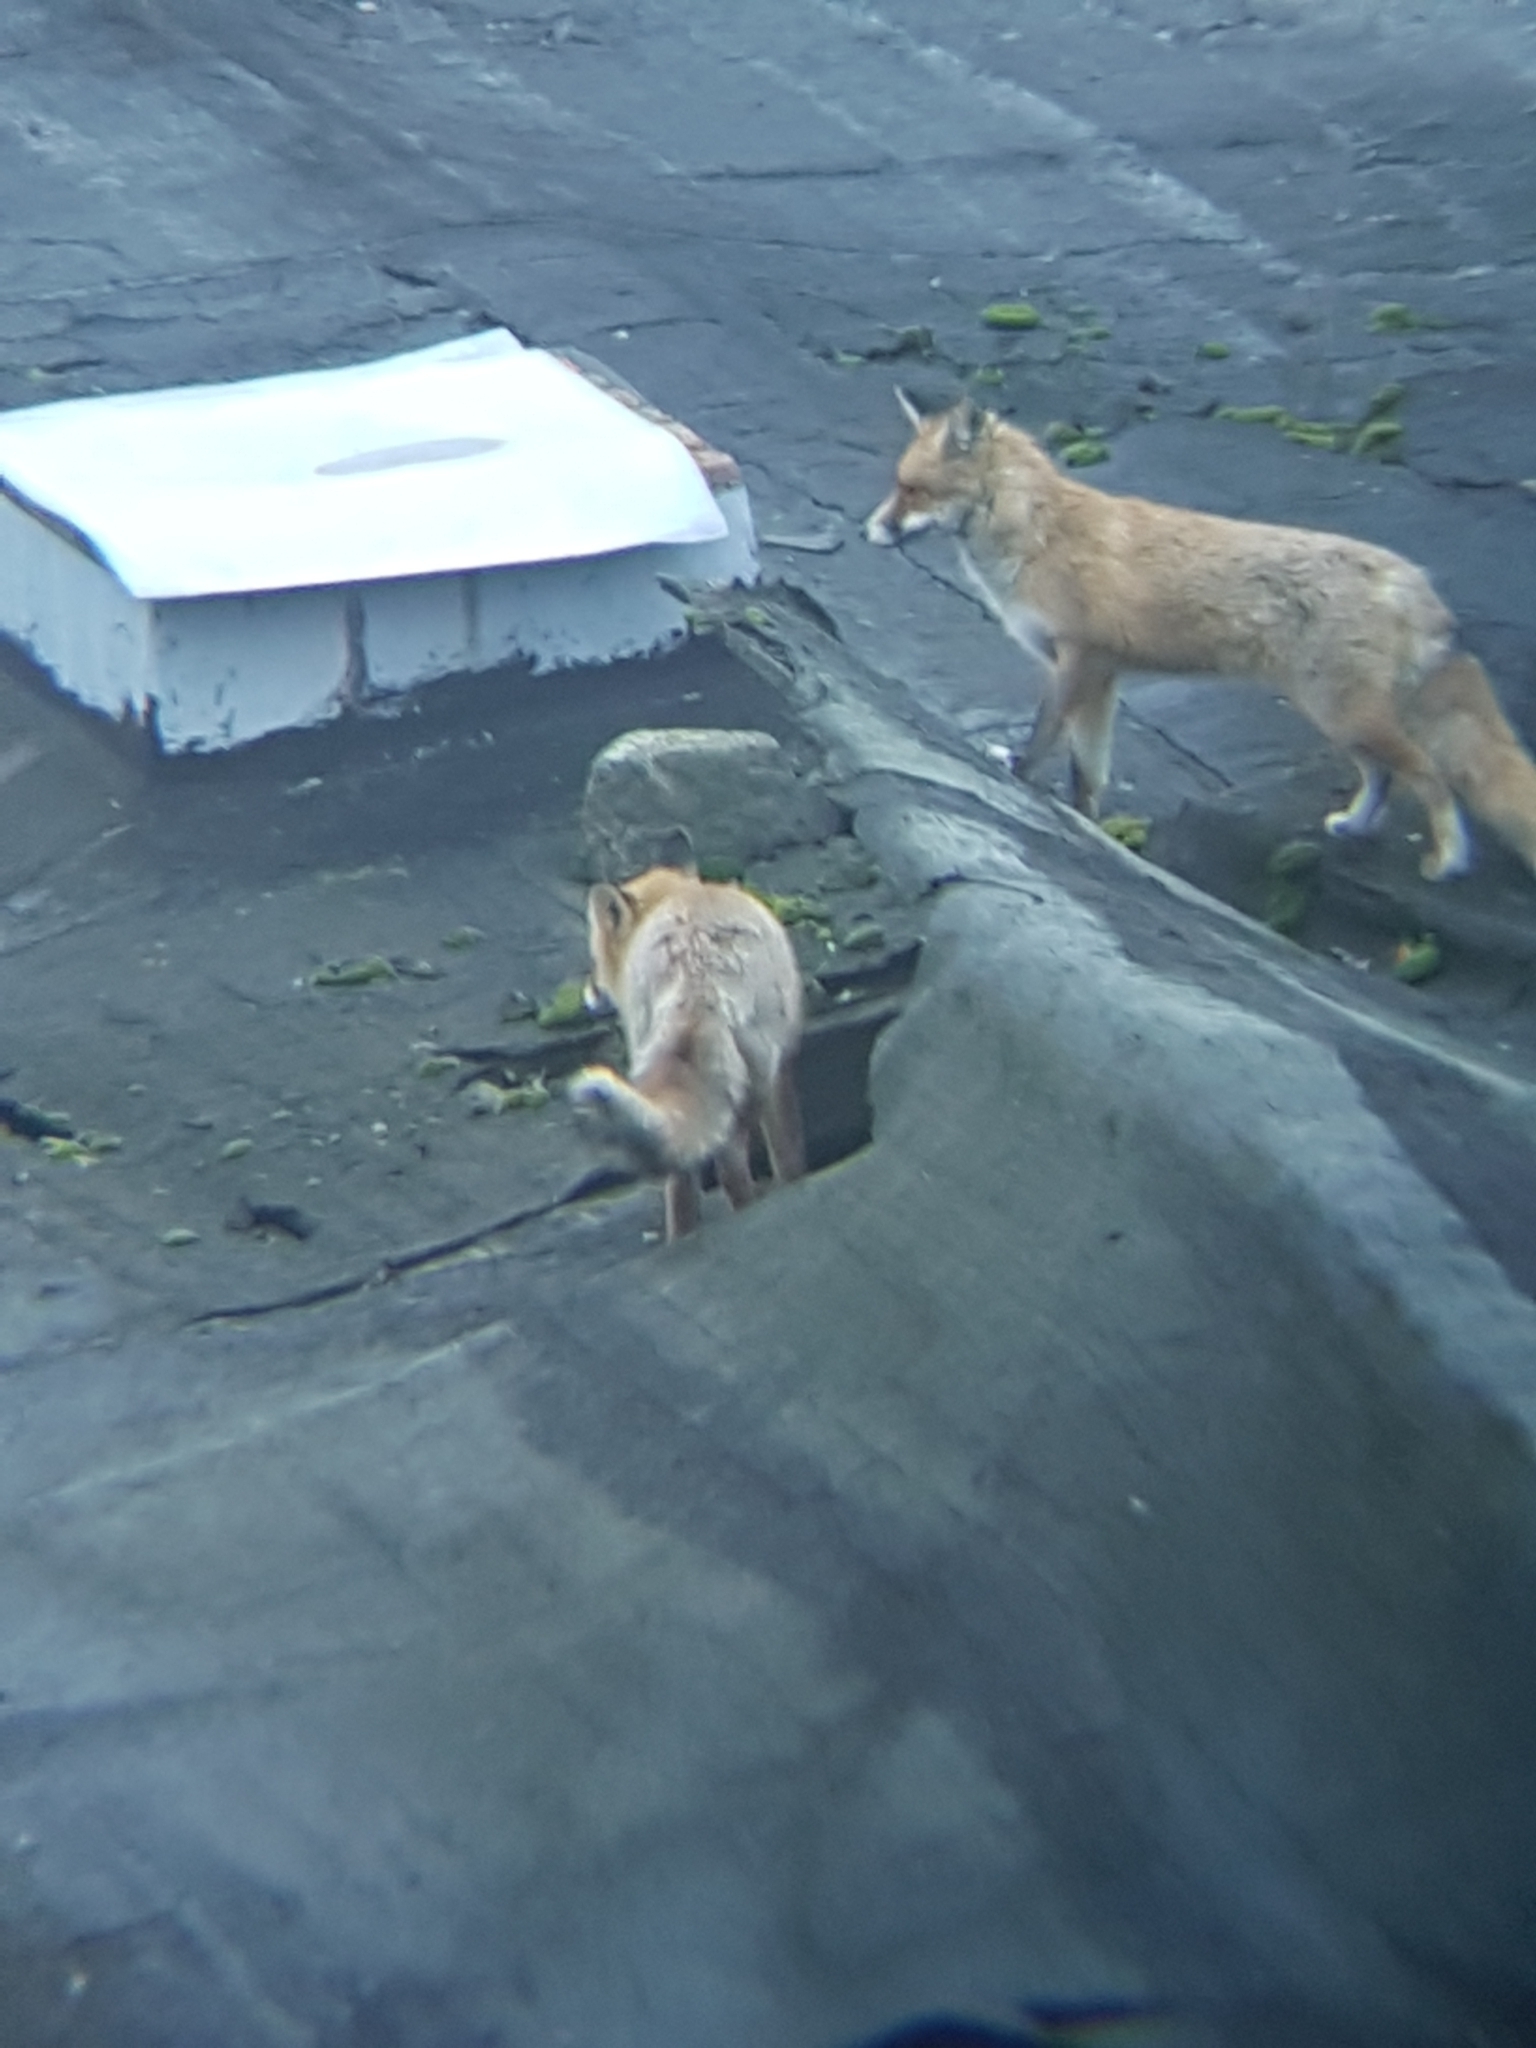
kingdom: Animalia
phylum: Chordata
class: Mammalia
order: Carnivora
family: Canidae
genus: Vulpes
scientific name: Vulpes vulpes
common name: Red fox
